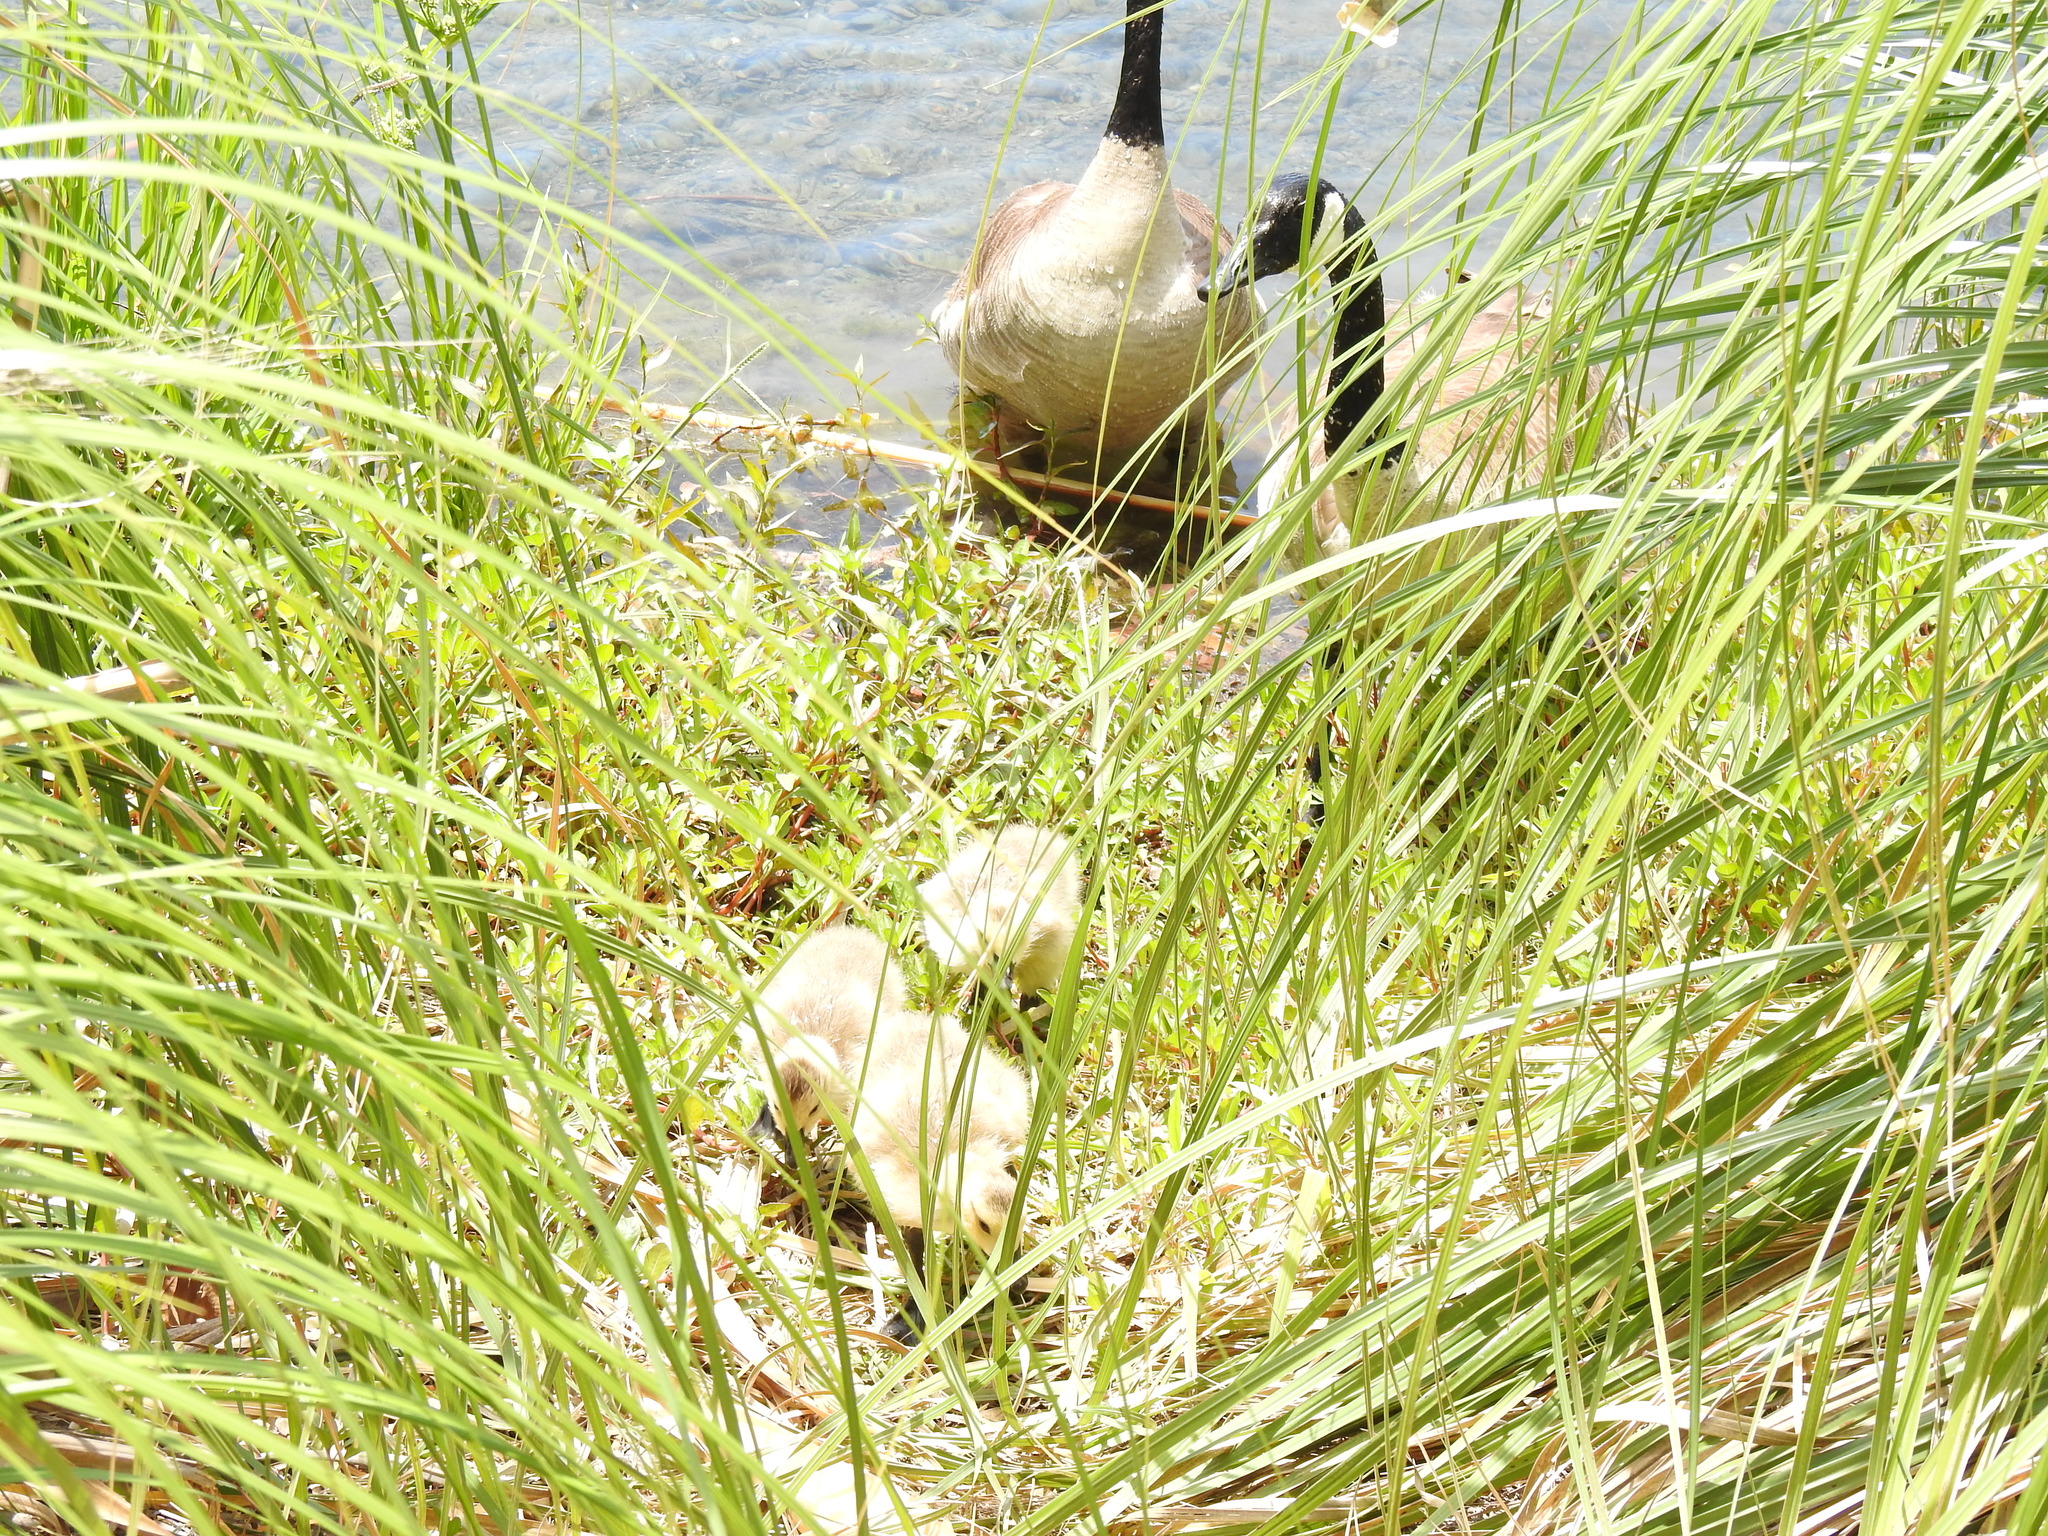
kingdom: Animalia
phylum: Chordata
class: Aves
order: Anseriformes
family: Anatidae
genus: Branta
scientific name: Branta canadensis
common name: Canada goose
